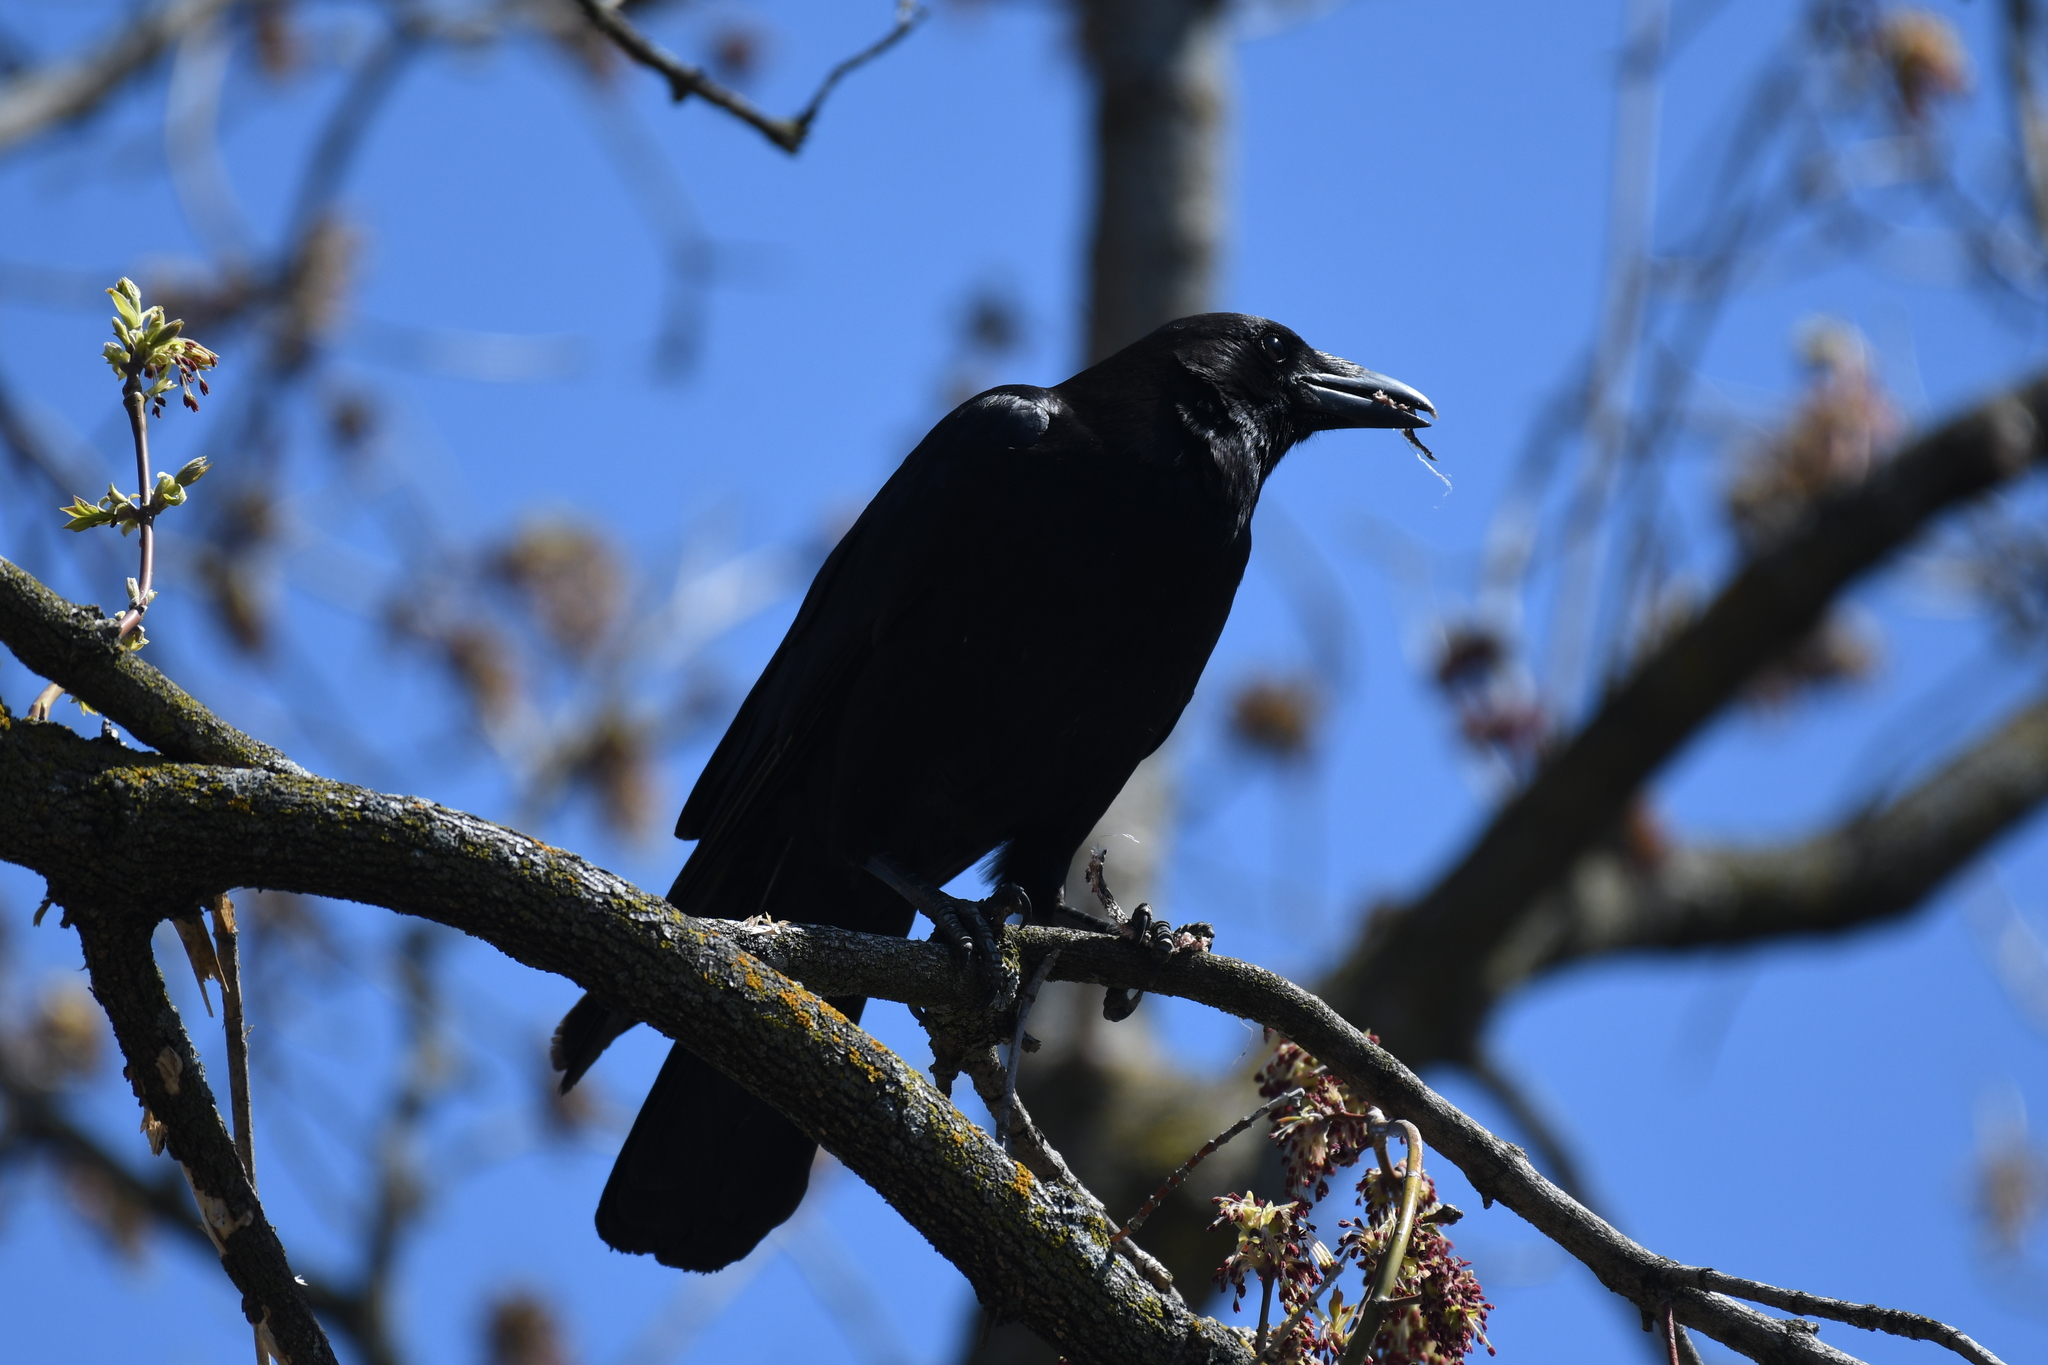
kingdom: Animalia
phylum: Chordata
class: Aves
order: Passeriformes
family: Corvidae
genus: Corvus
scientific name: Corvus brachyrhynchos
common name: American crow
